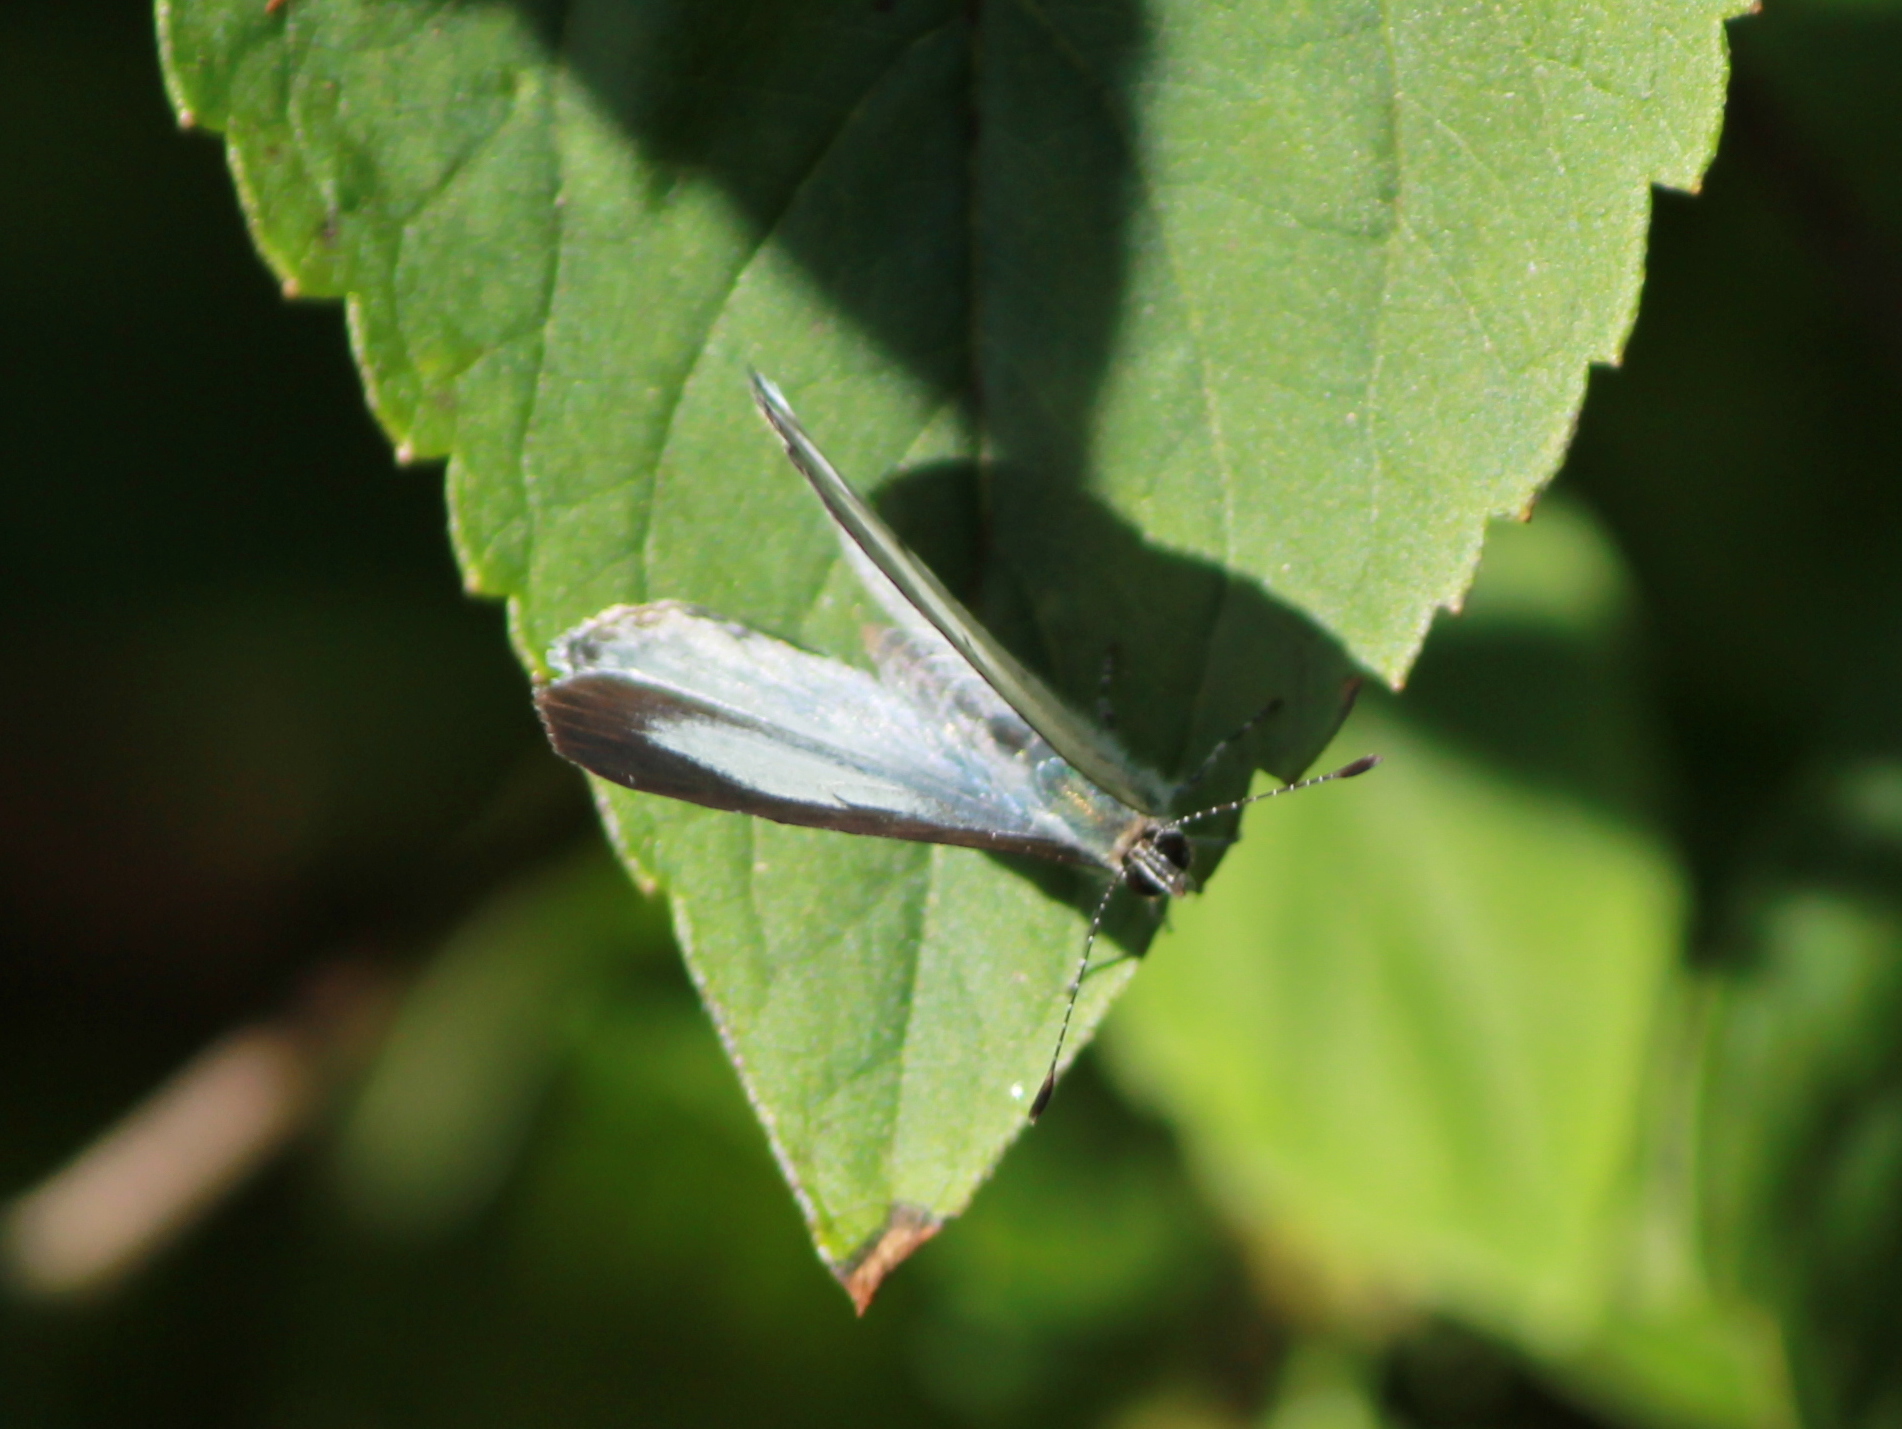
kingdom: Animalia
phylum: Arthropoda
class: Insecta
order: Lepidoptera
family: Lycaenidae
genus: Udara
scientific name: Udara akasa
